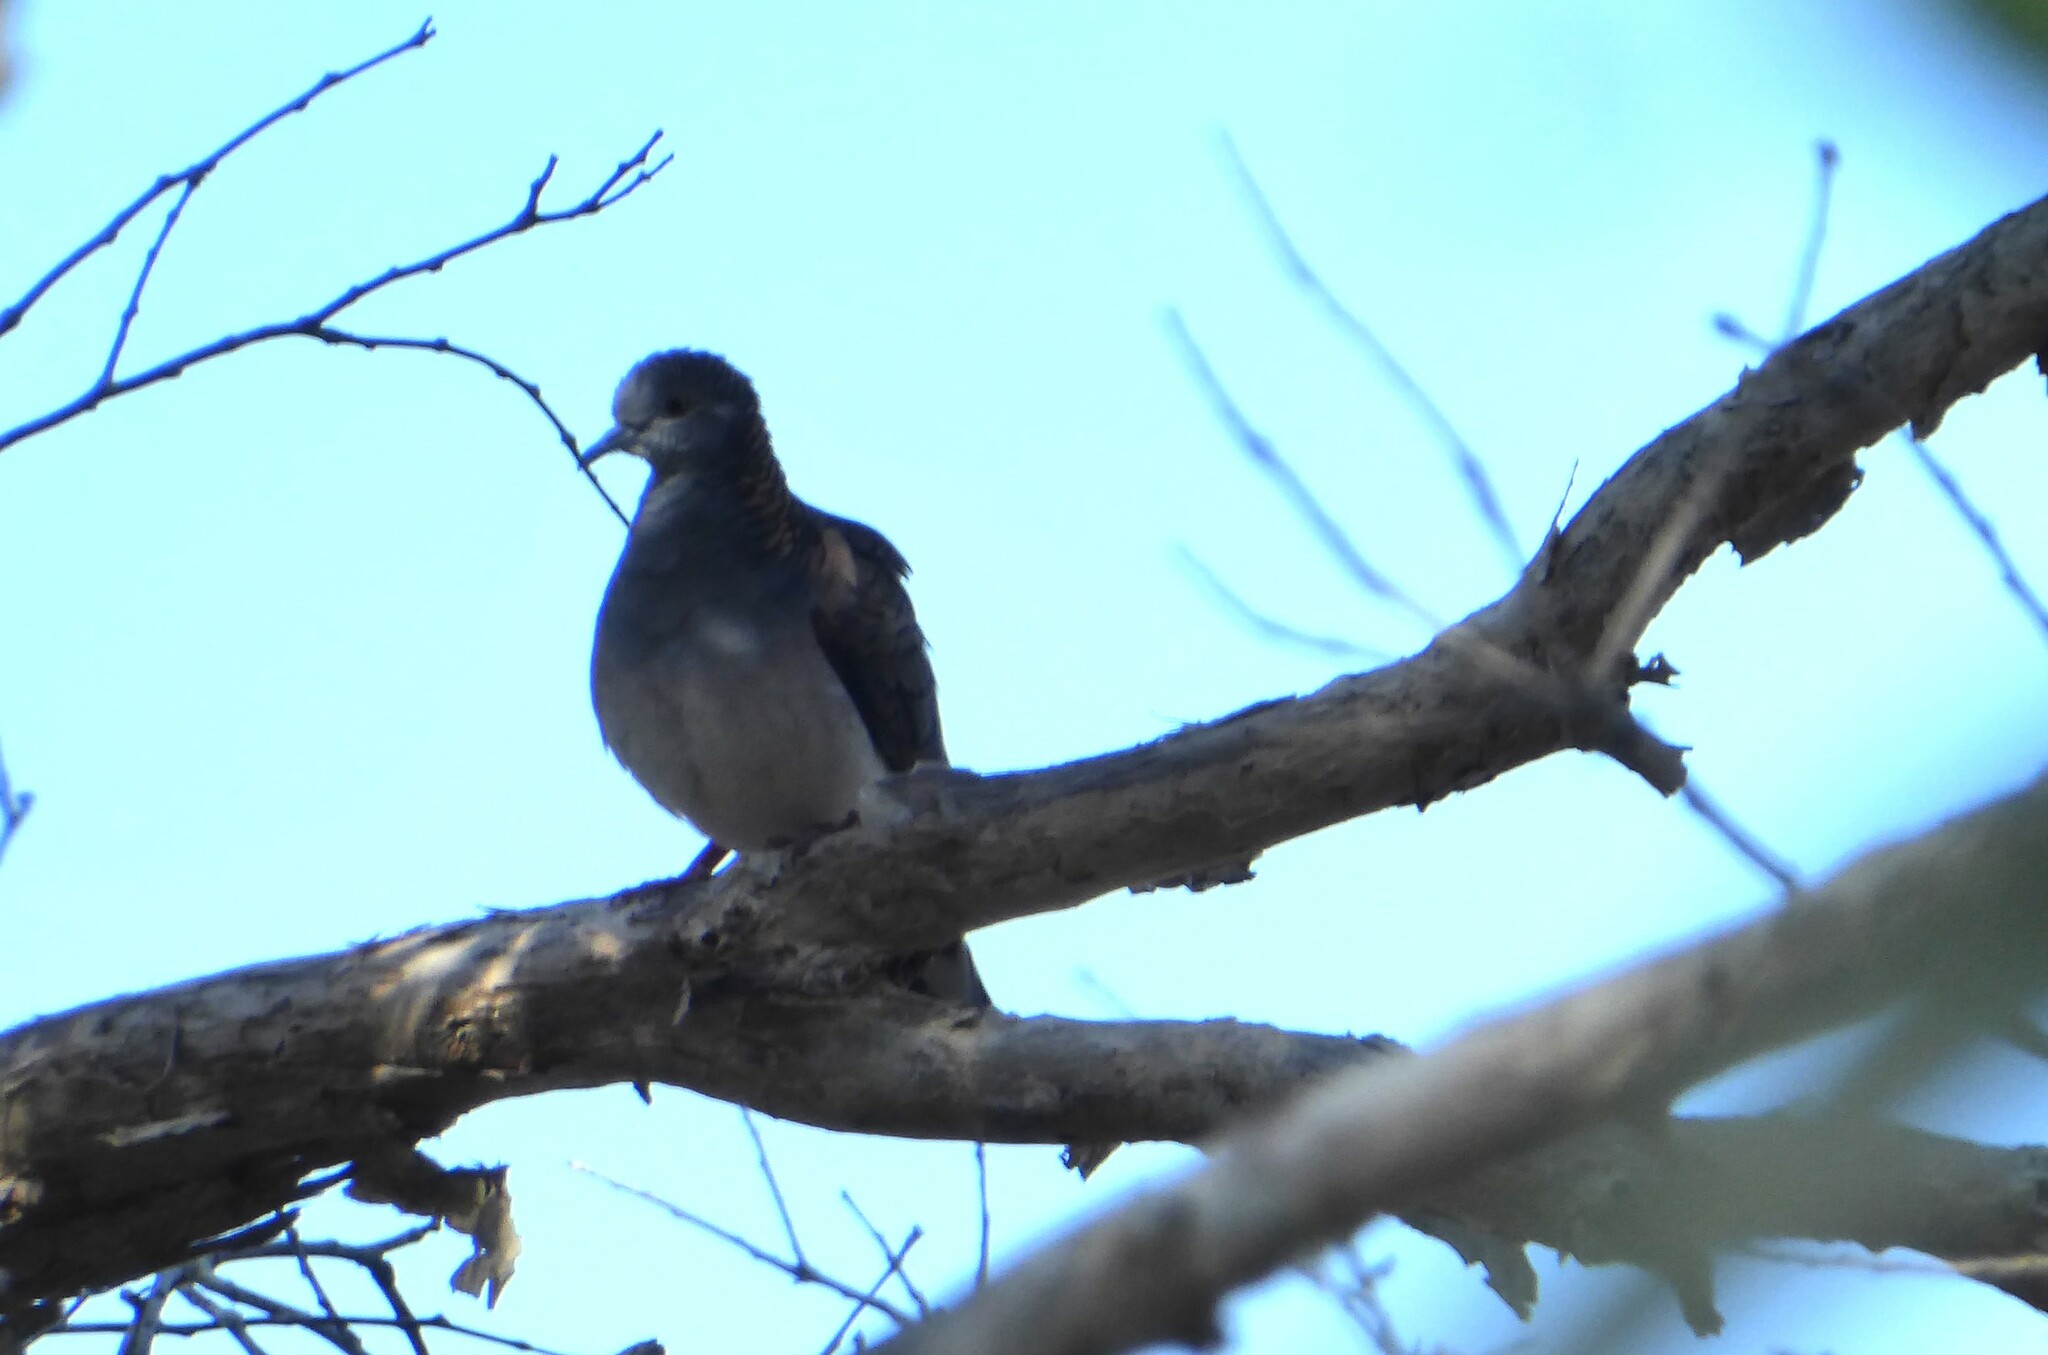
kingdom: Animalia
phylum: Chordata
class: Aves
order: Columbiformes
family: Columbidae
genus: Geopelia
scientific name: Geopelia humeralis
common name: Bar-shouldered dove
